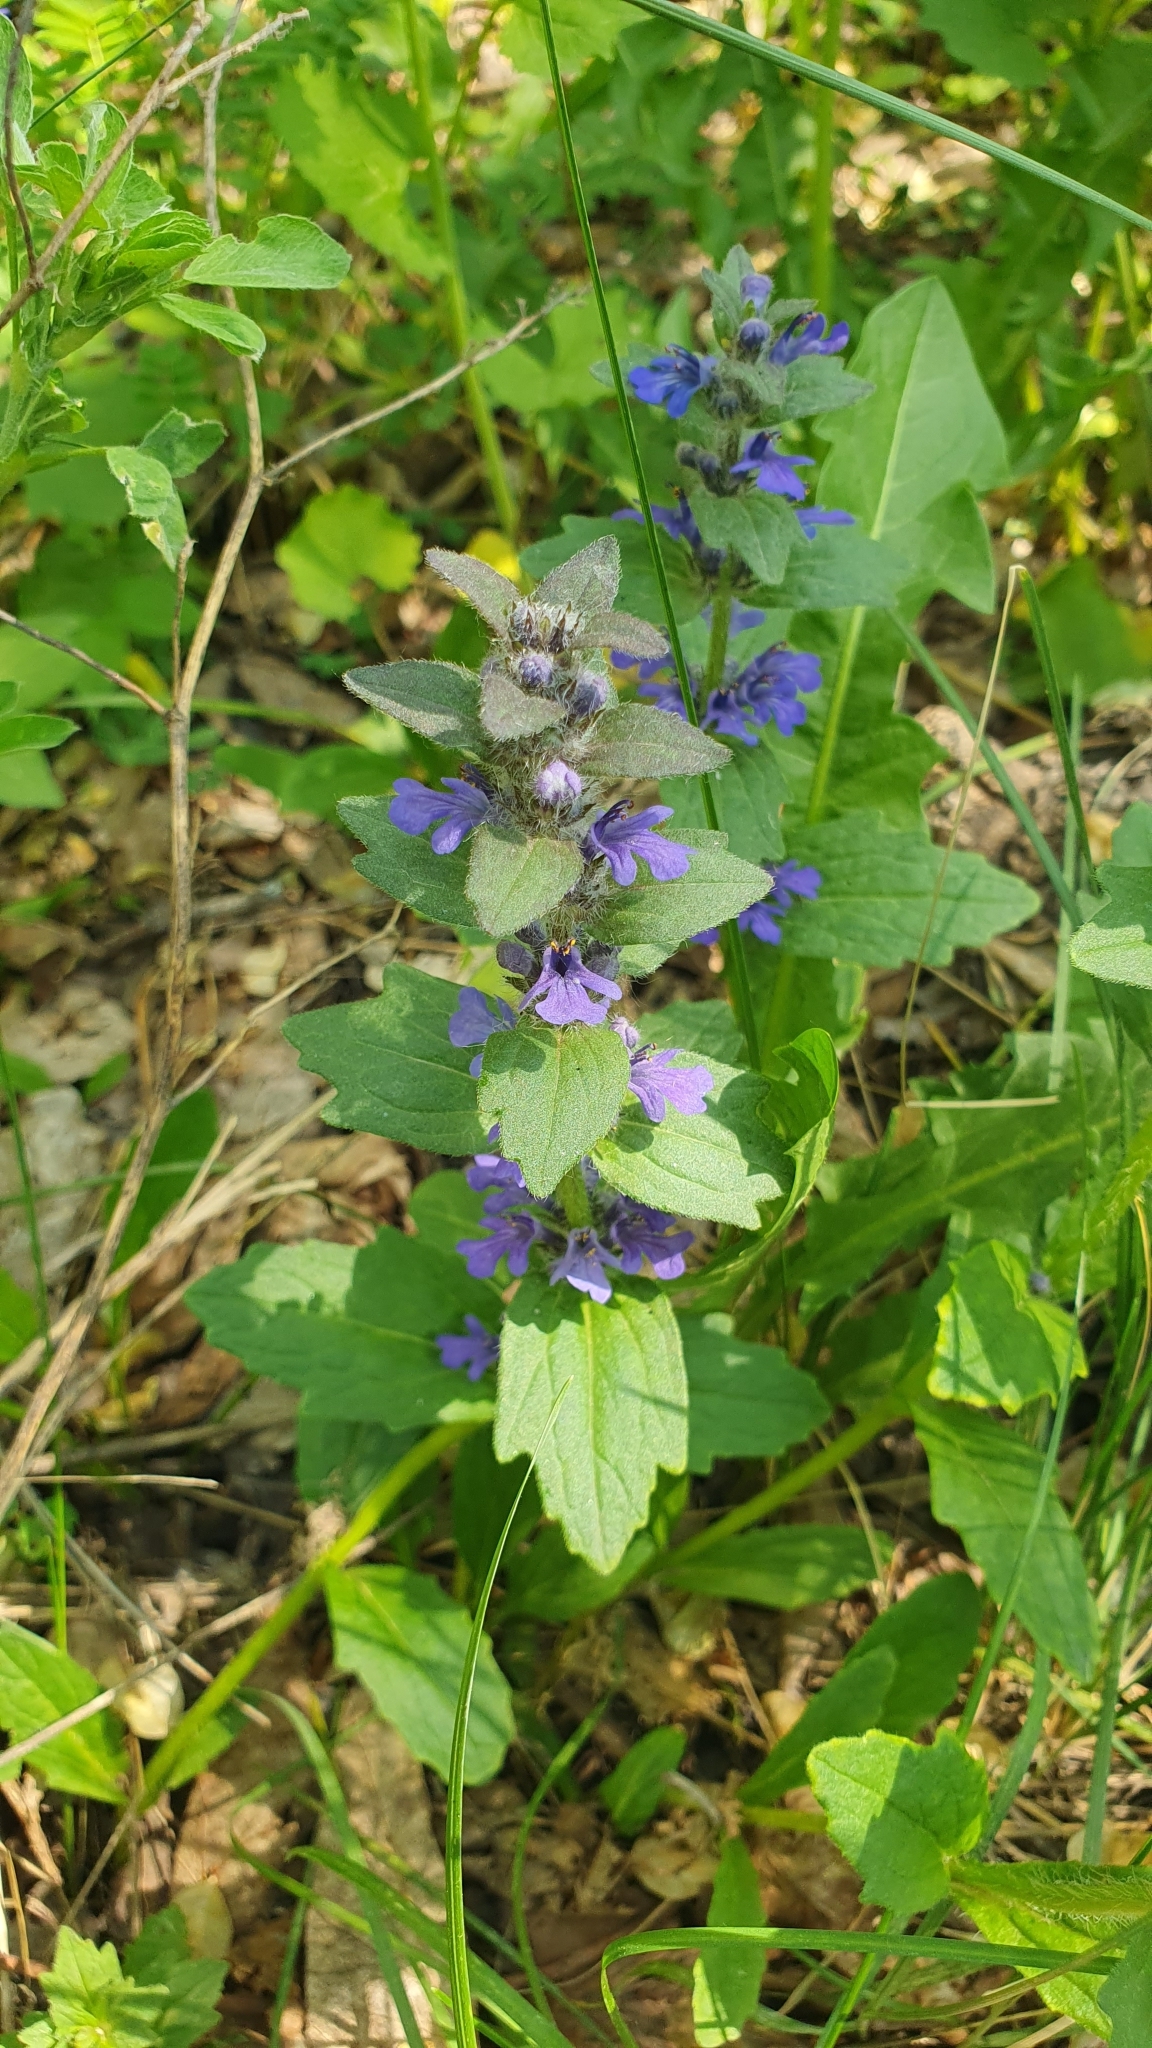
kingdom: Plantae
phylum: Tracheophyta
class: Magnoliopsida
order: Lamiales
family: Lamiaceae
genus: Ajuga
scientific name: Ajuga genevensis
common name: Blue bugle
